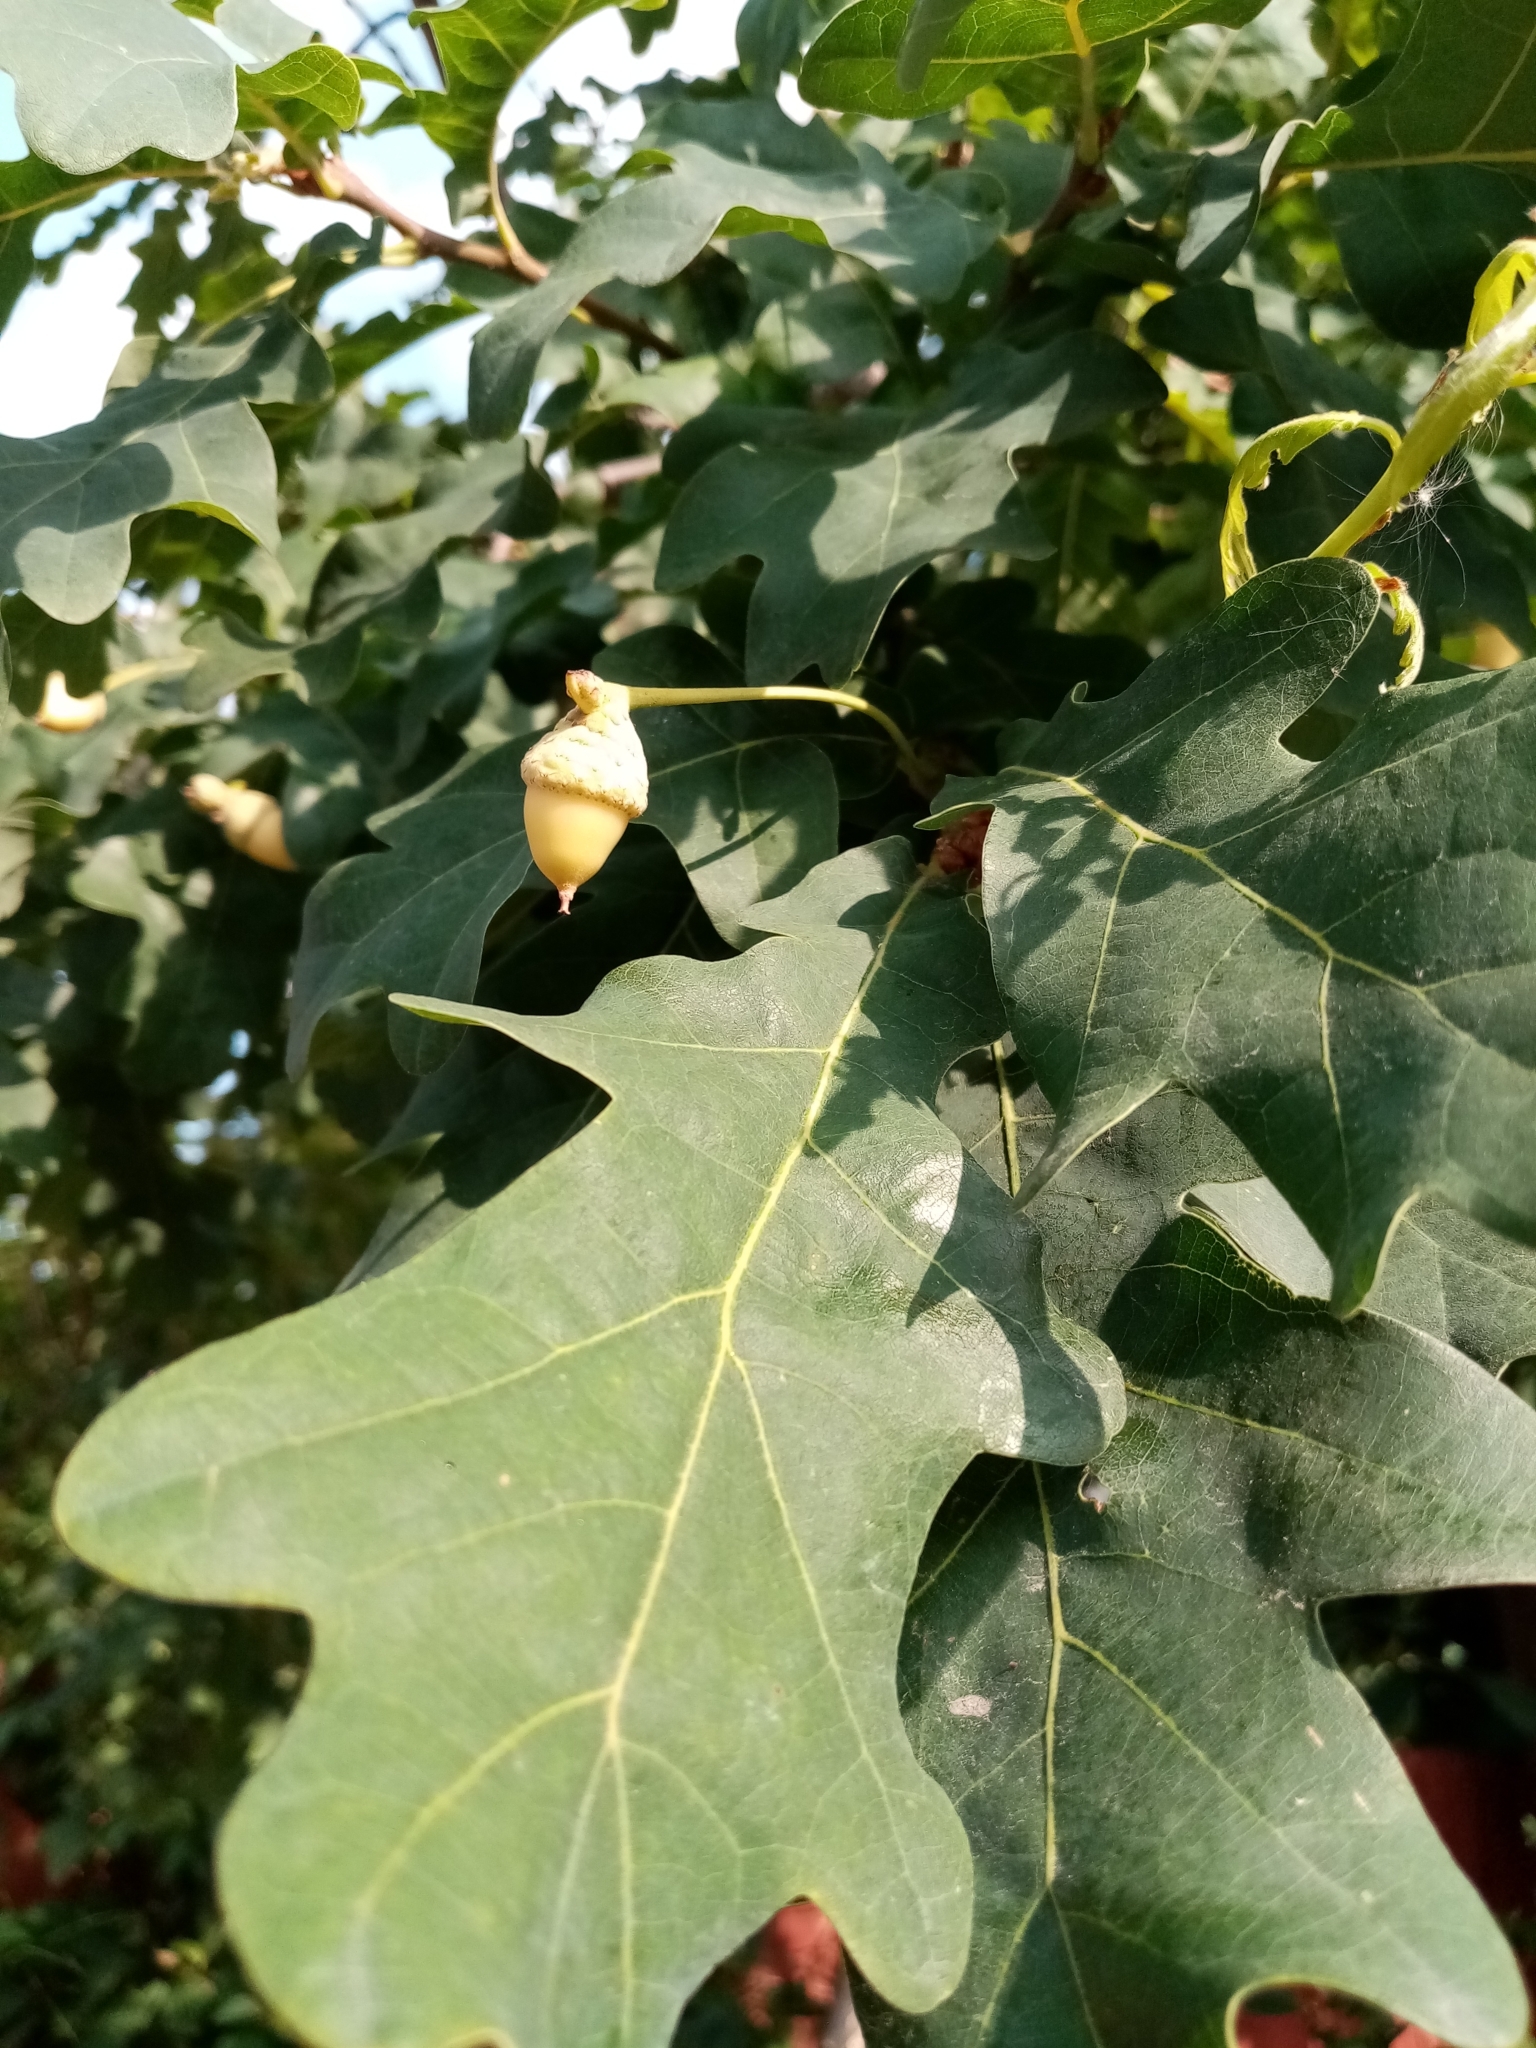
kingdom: Plantae
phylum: Tracheophyta
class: Magnoliopsida
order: Fagales
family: Fagaceae
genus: Quercus
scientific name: Quercus robur
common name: Pedunculate oak
